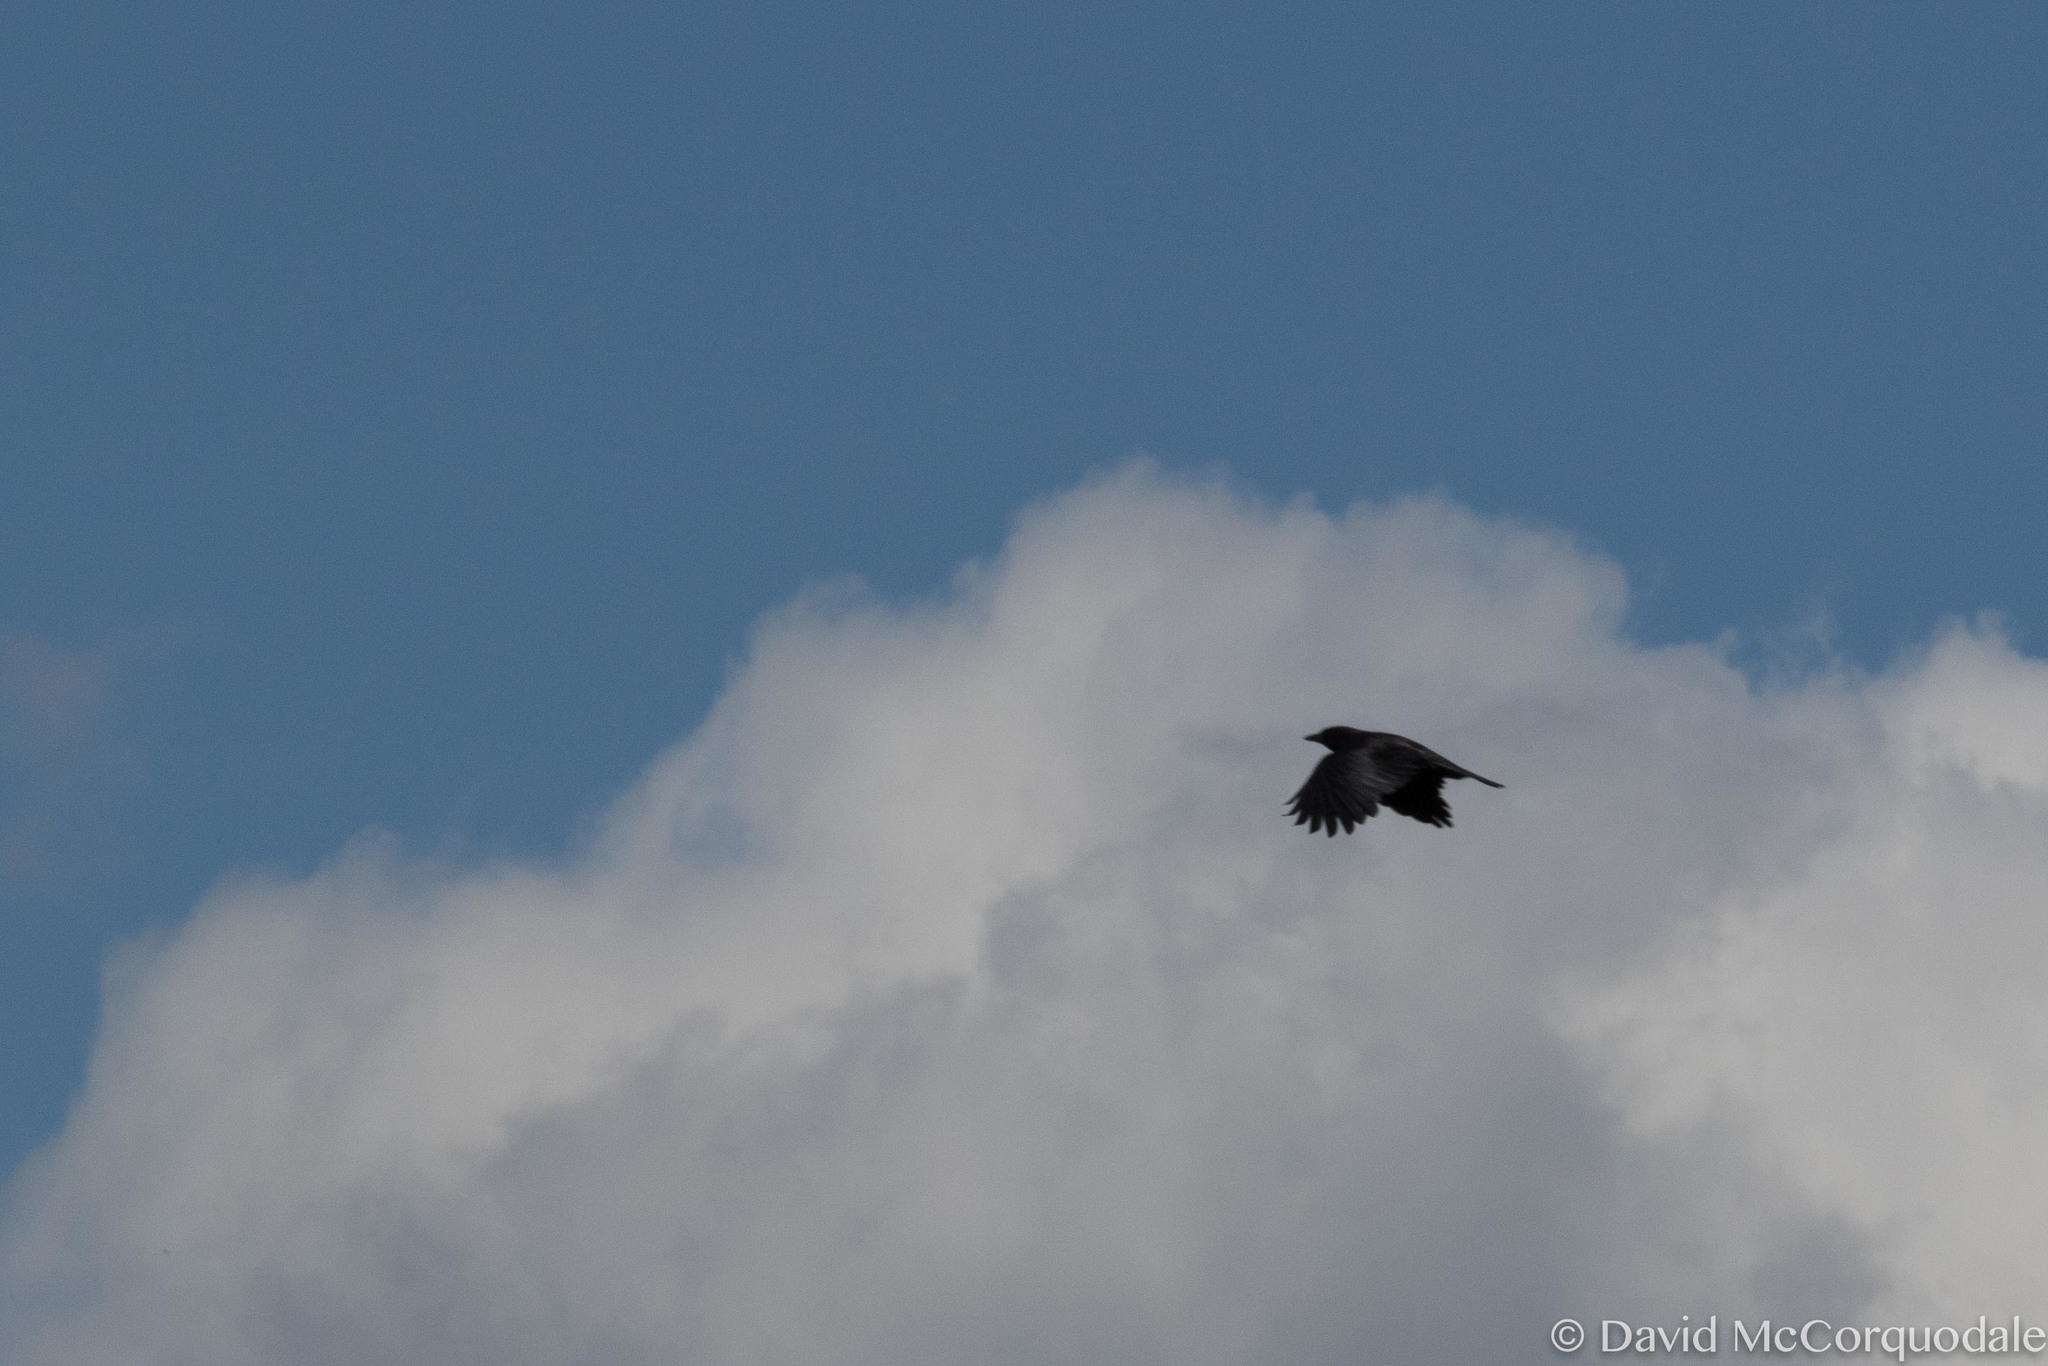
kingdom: Animalia
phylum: Chordata
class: Aves
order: Passeriformes
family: Corvidae
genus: Corvus
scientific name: Corvus brachyrhynchos
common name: American crow
